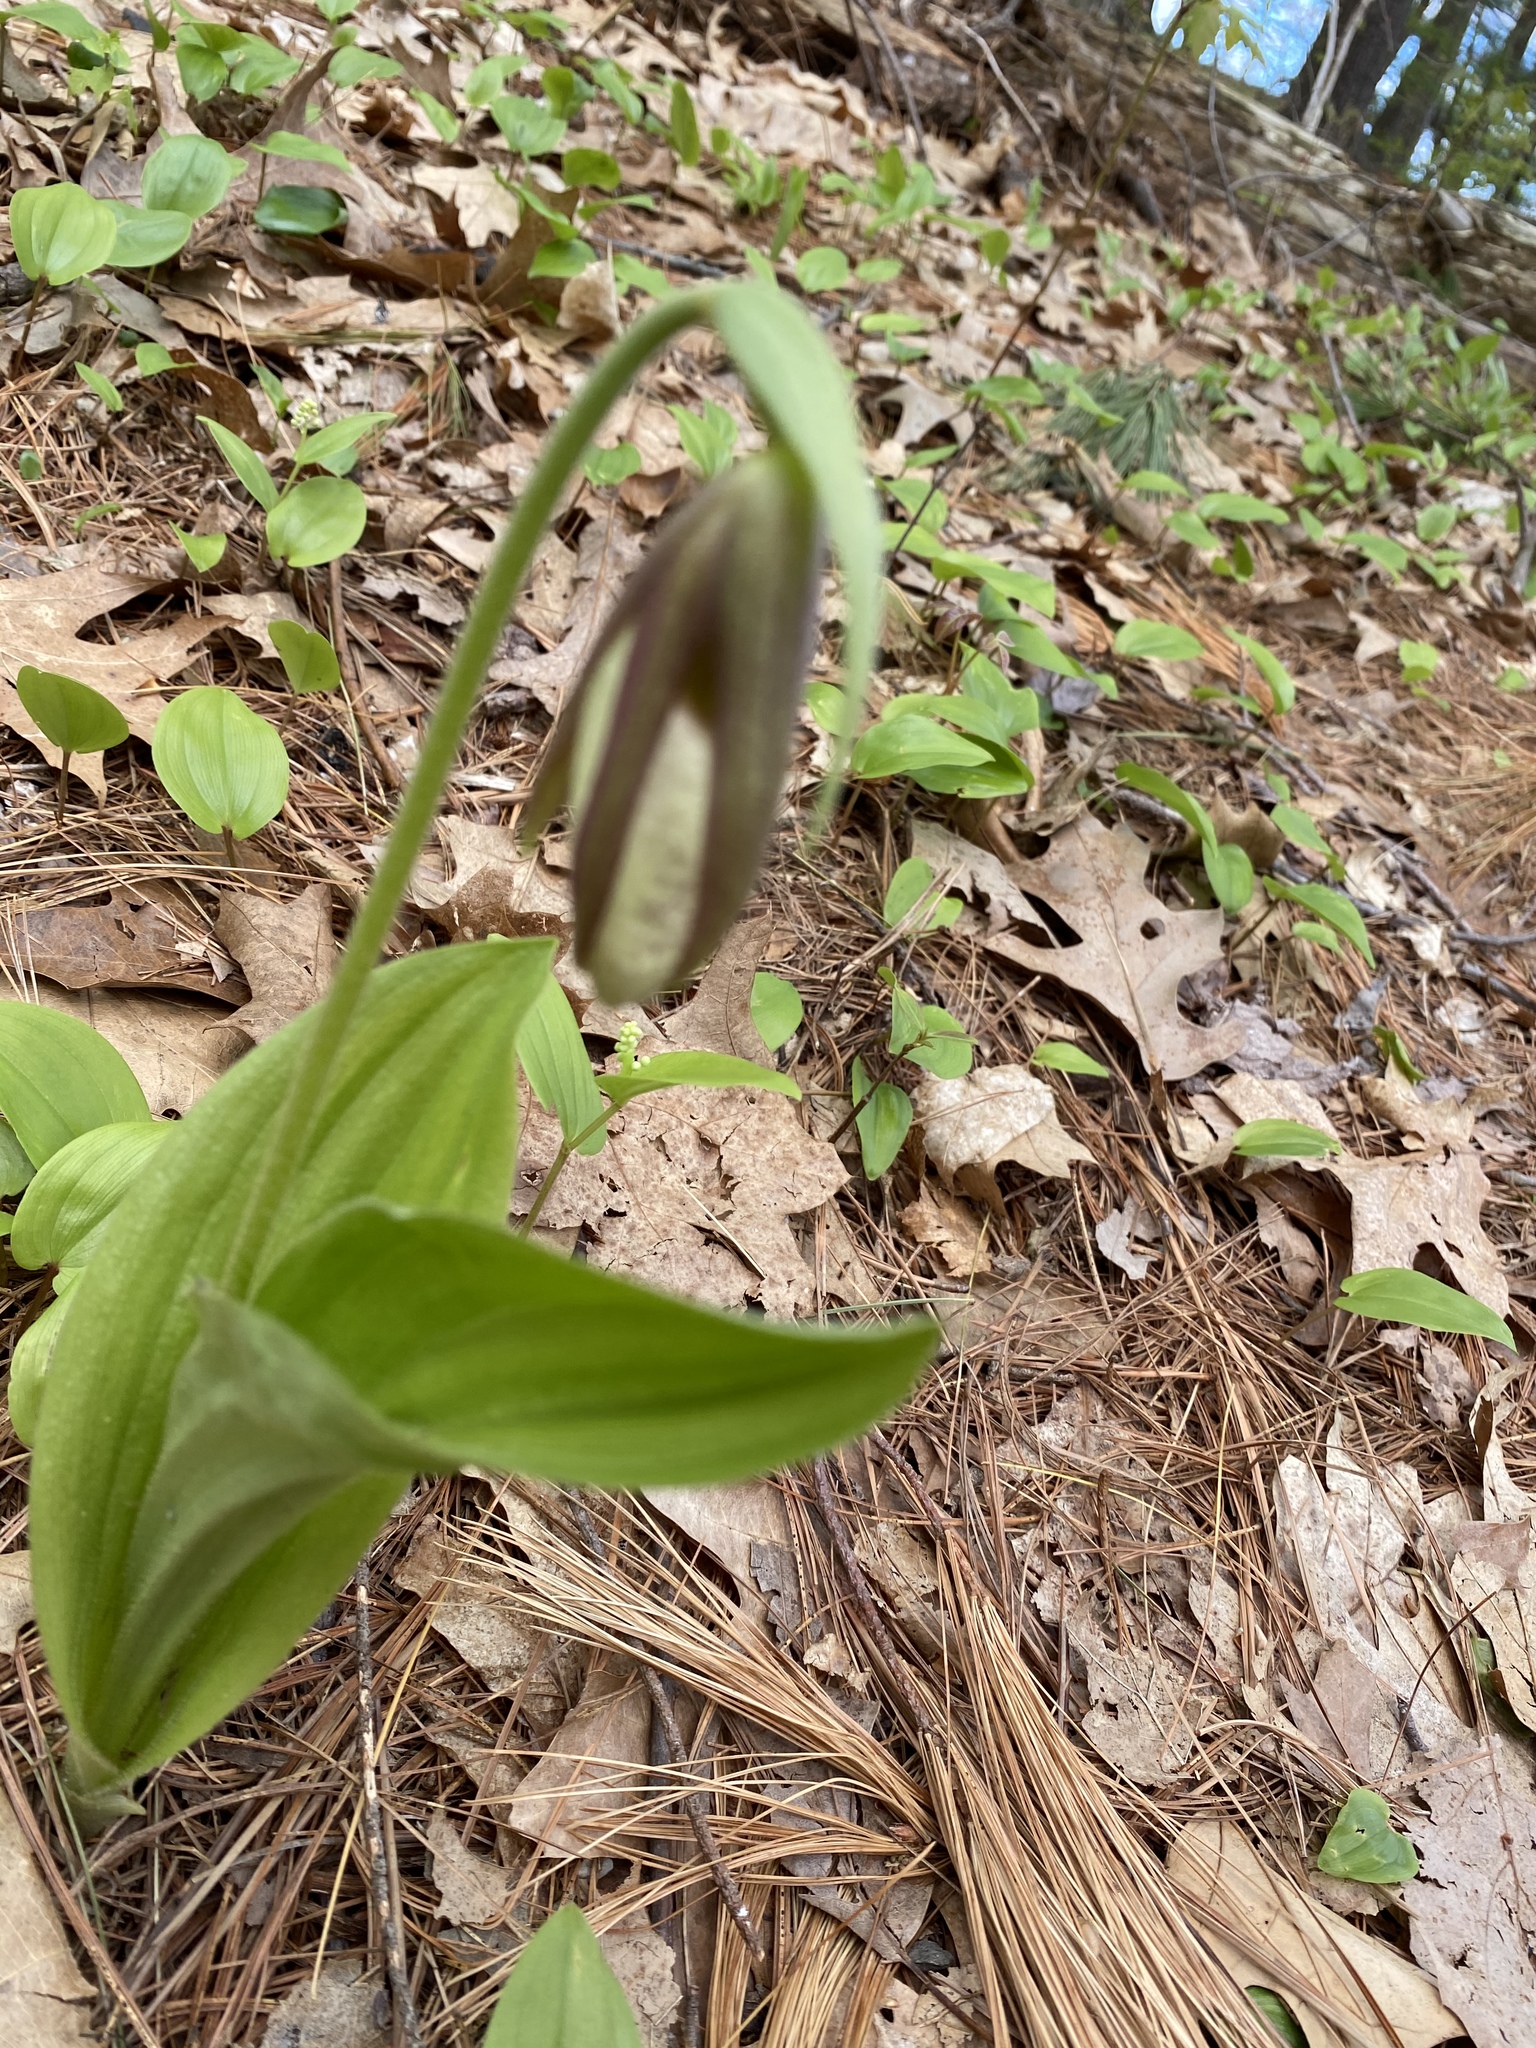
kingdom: Plantae
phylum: Tracheophyta
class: Liliopsida
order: Asparagales
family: Orchidaceae
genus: Cypripedium
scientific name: Cypripedium acaule
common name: Pink lady's-slipper
